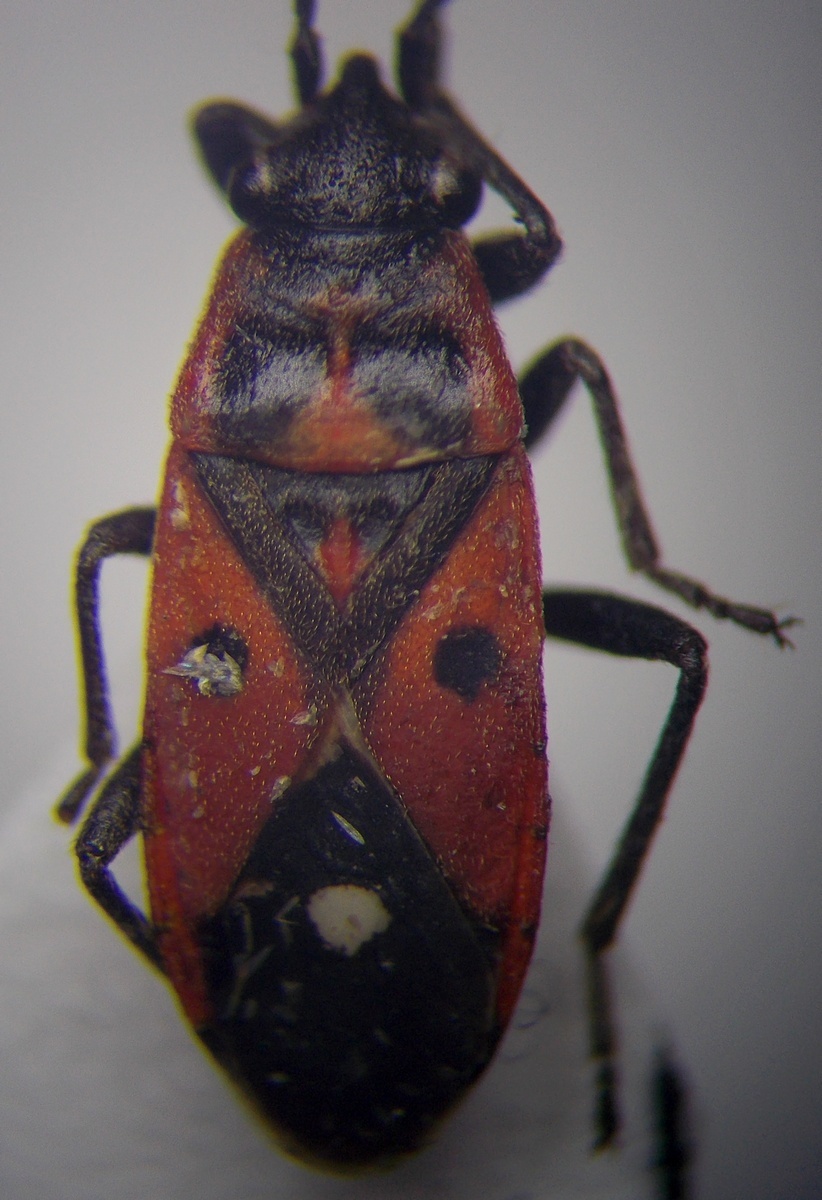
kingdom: Animalia
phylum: Arthropoda
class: Insecta
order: Hemiptera
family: Lygaeidae
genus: Melanocoryphus
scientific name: Melanocoryphus tristrami
